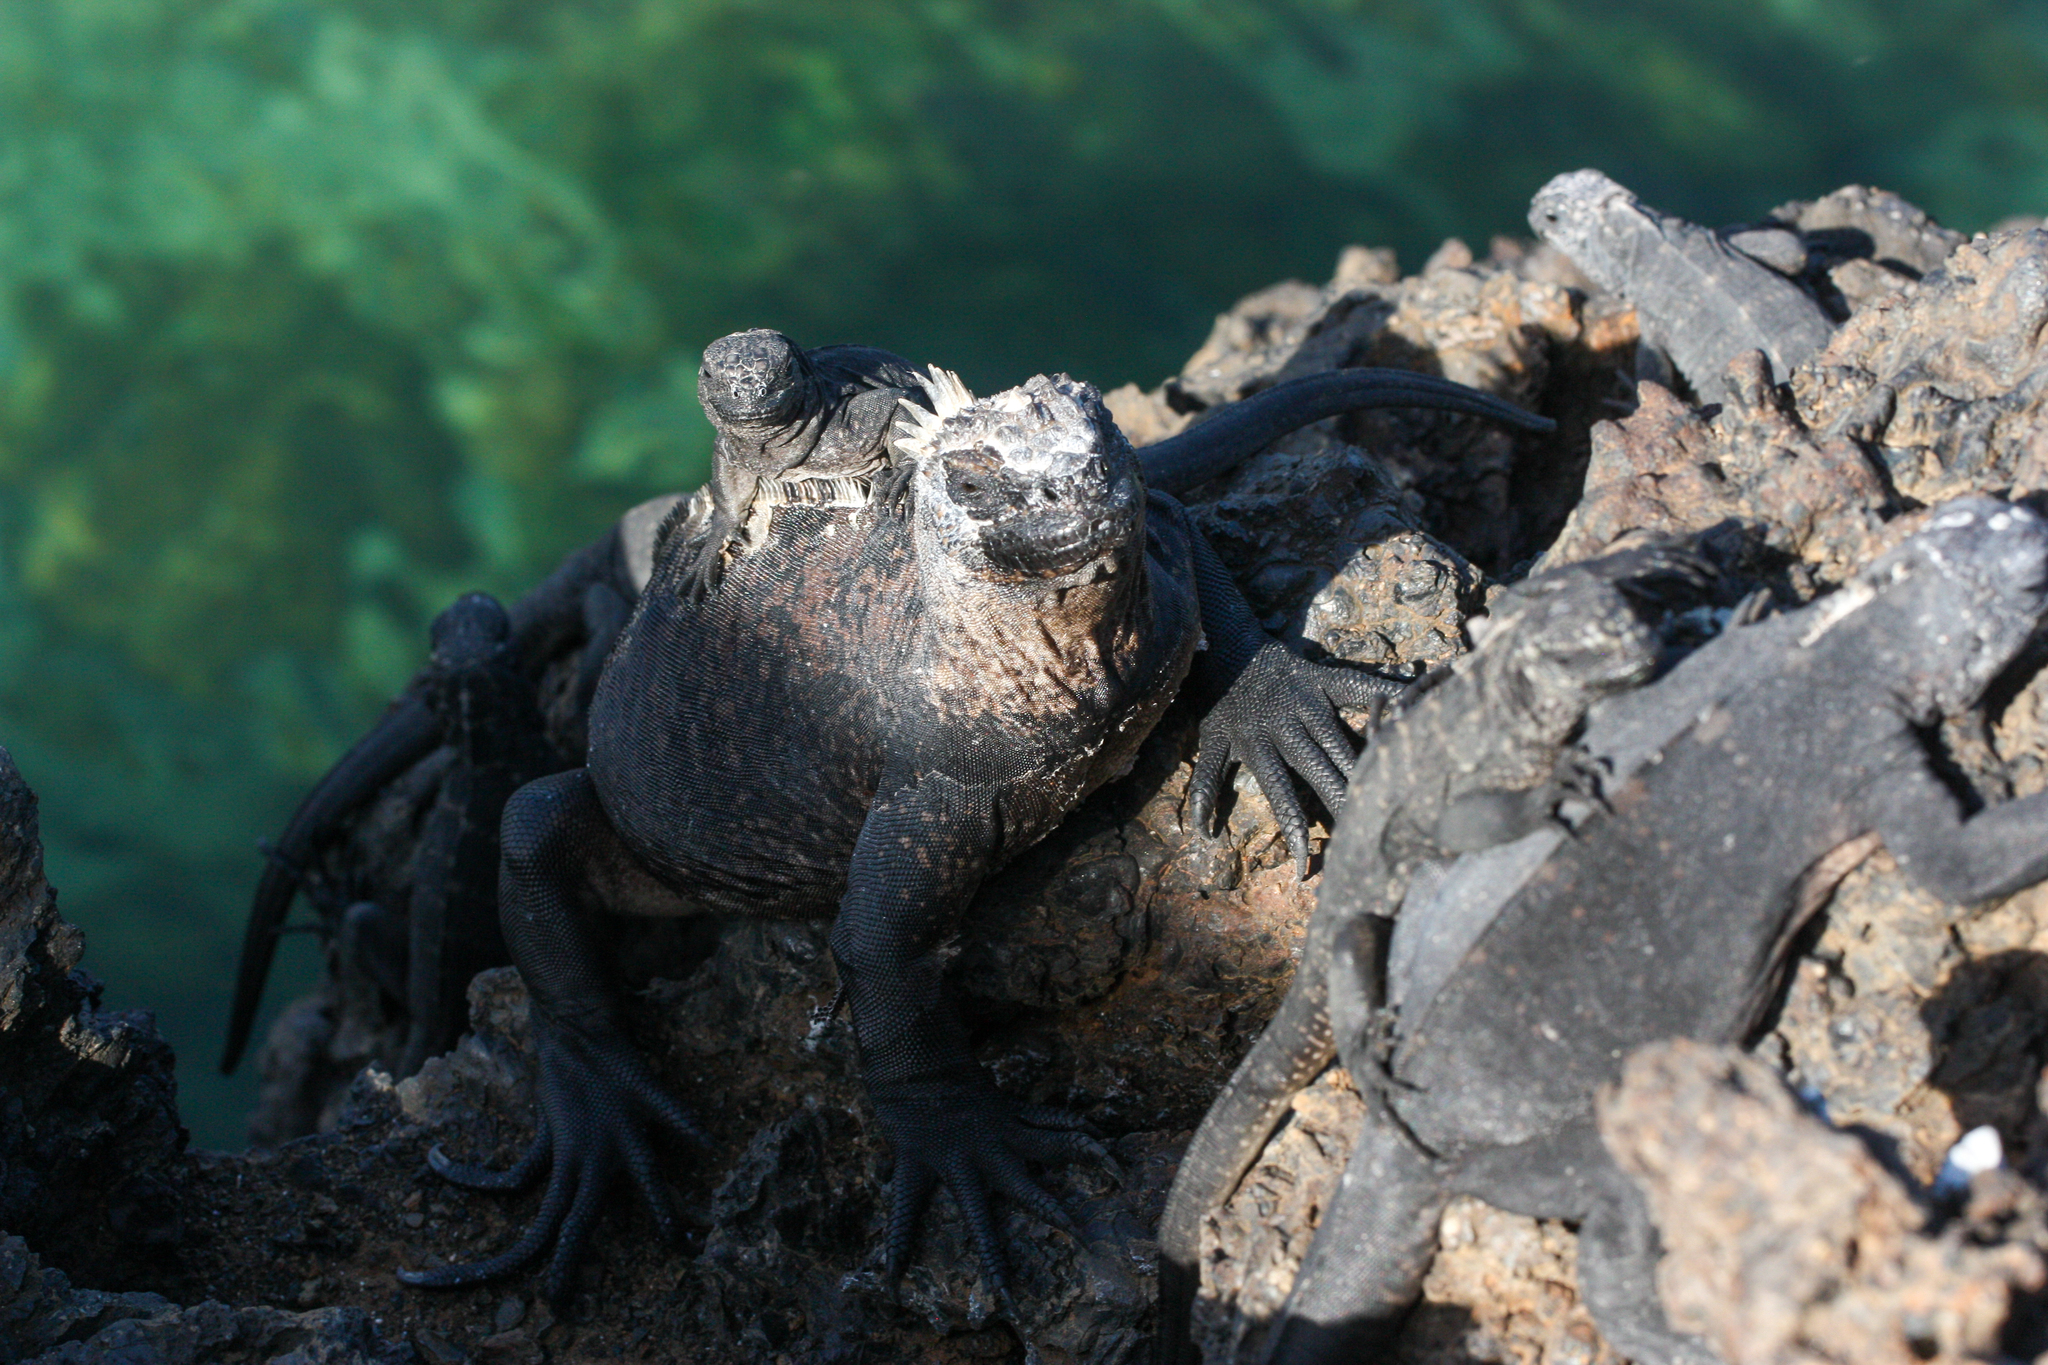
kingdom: Animalia
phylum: Chordata
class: Squamata
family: Iguanidae
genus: Amblyrhynchus
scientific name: Amblyrhynchus cristatus
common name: Marine iguana
